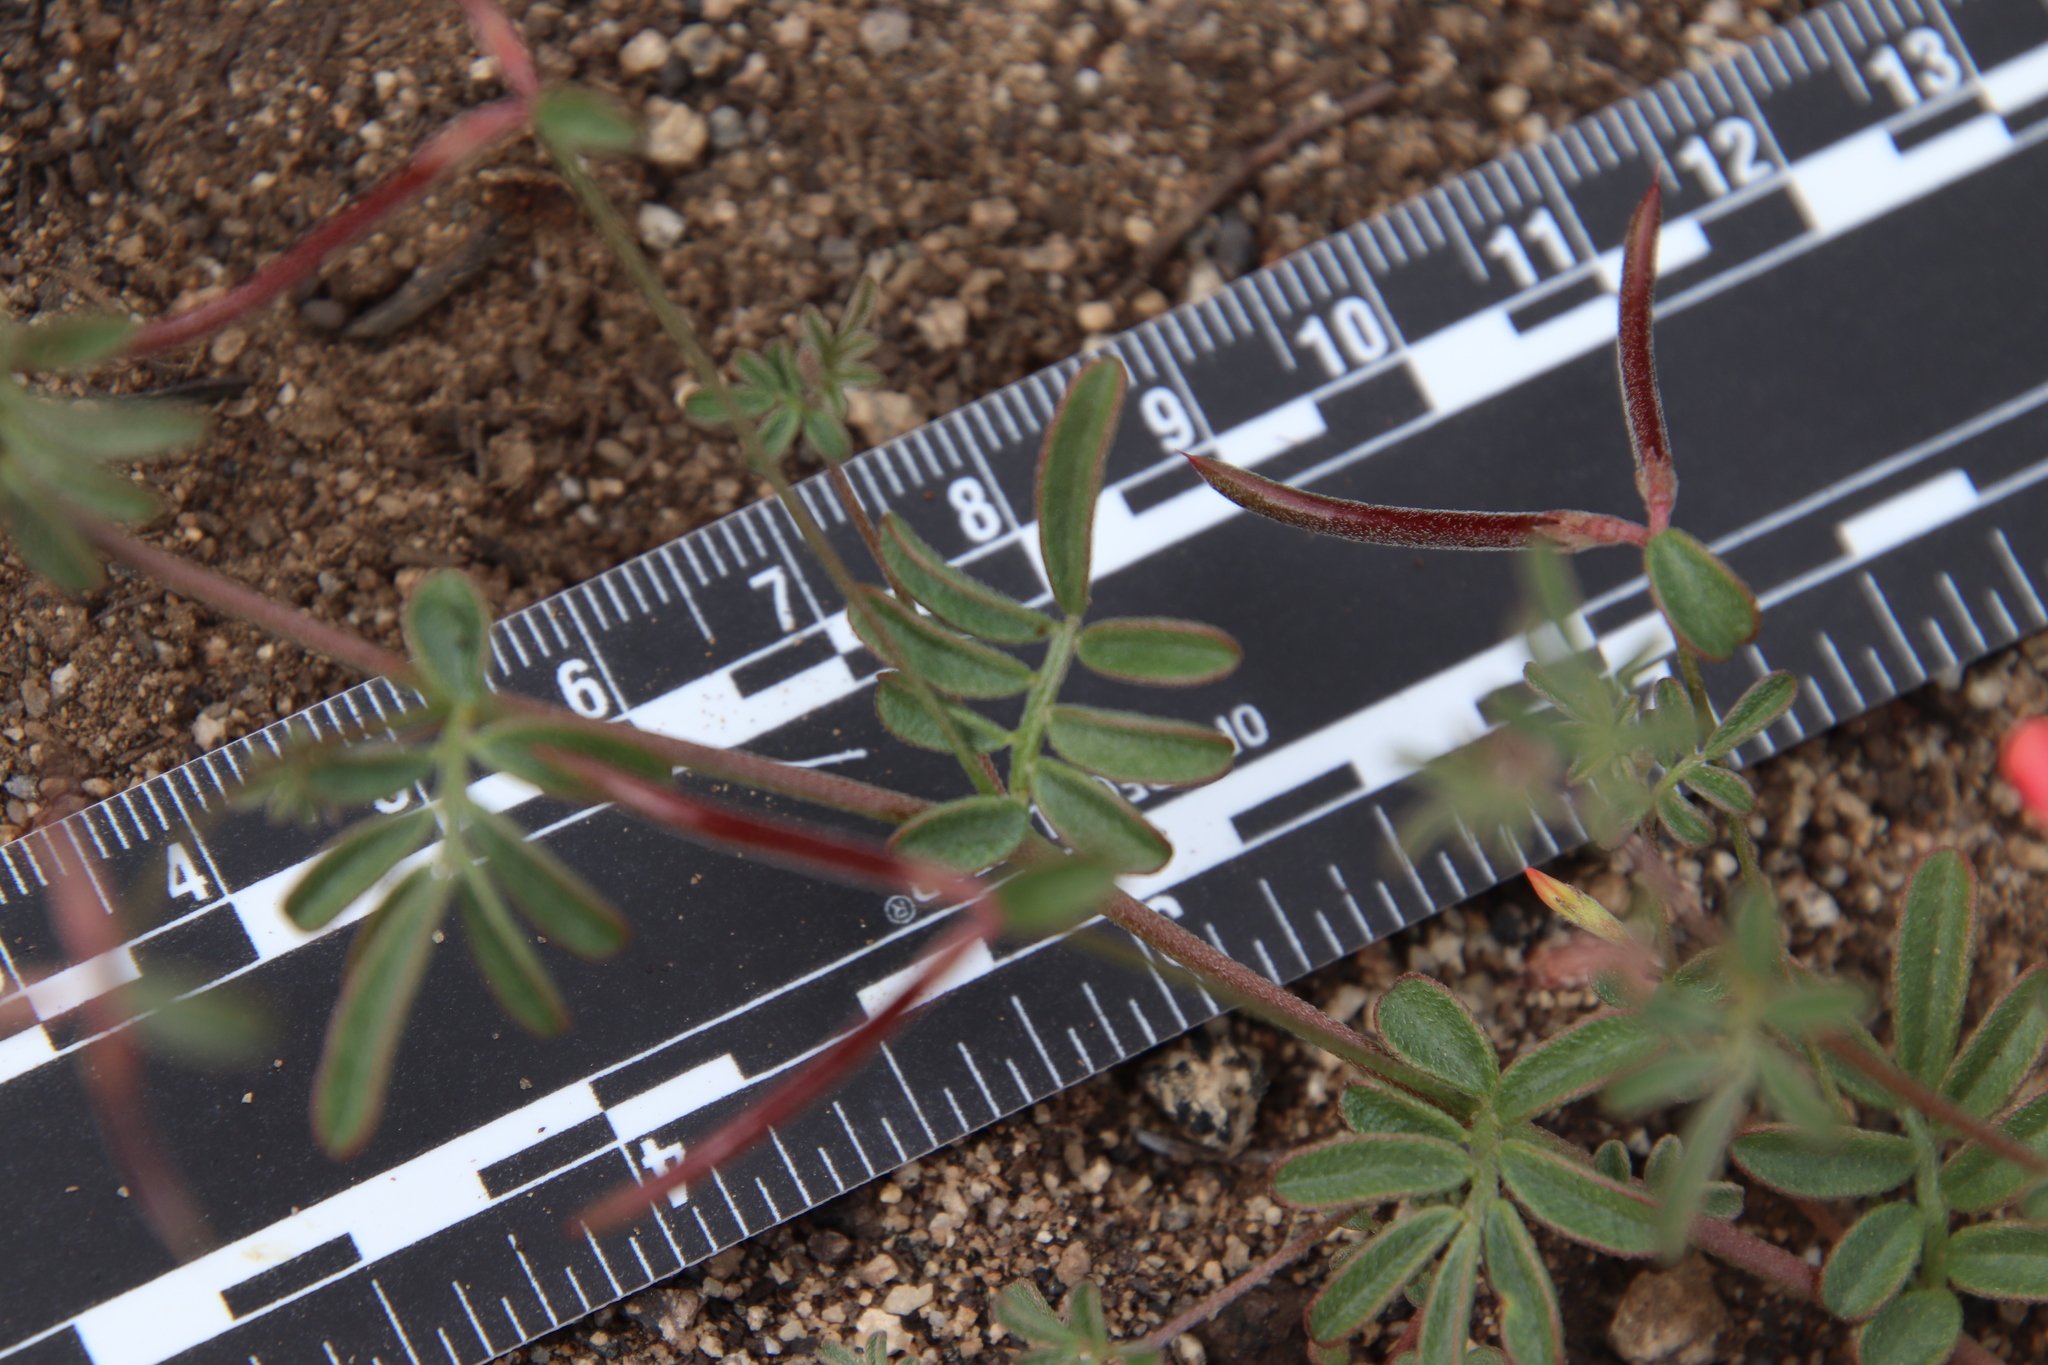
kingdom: Plantae
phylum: Tracheophyta
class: Magnoliopsida
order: Fabales
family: Fabaceae
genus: Acmispon
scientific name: Acmispon strigosus
